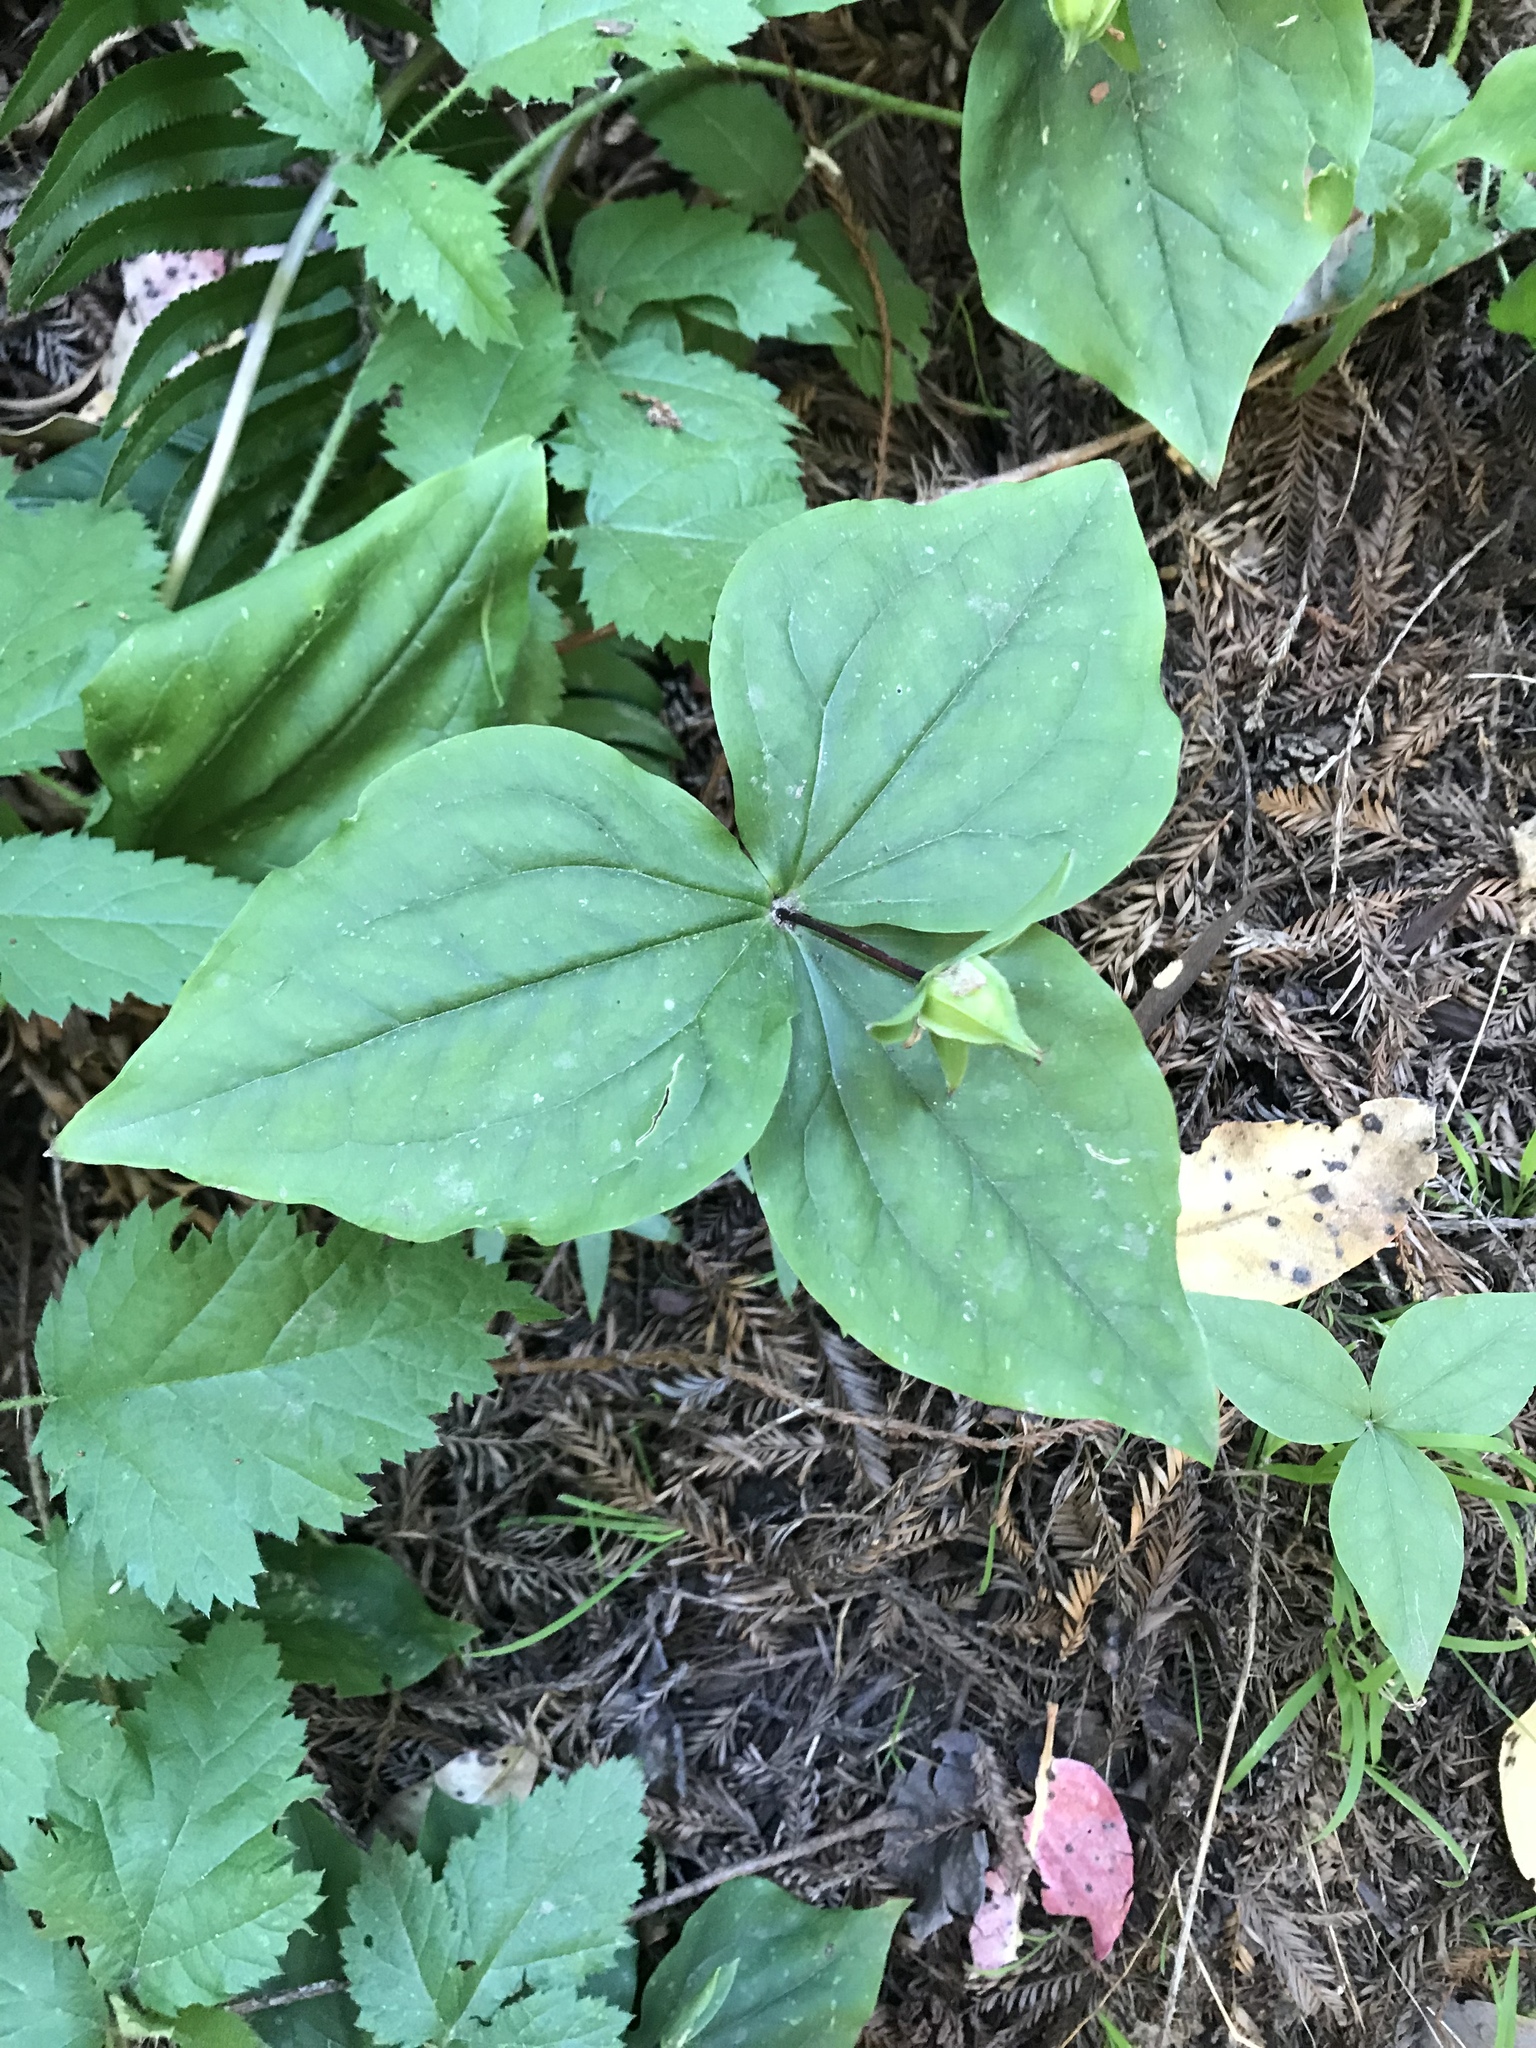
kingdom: Plantae
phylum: Tracheophyta
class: Liliopsida
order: Liliales
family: Melanthiaceae
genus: Trillium
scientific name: Trillium ovatum
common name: Pacific trillium
